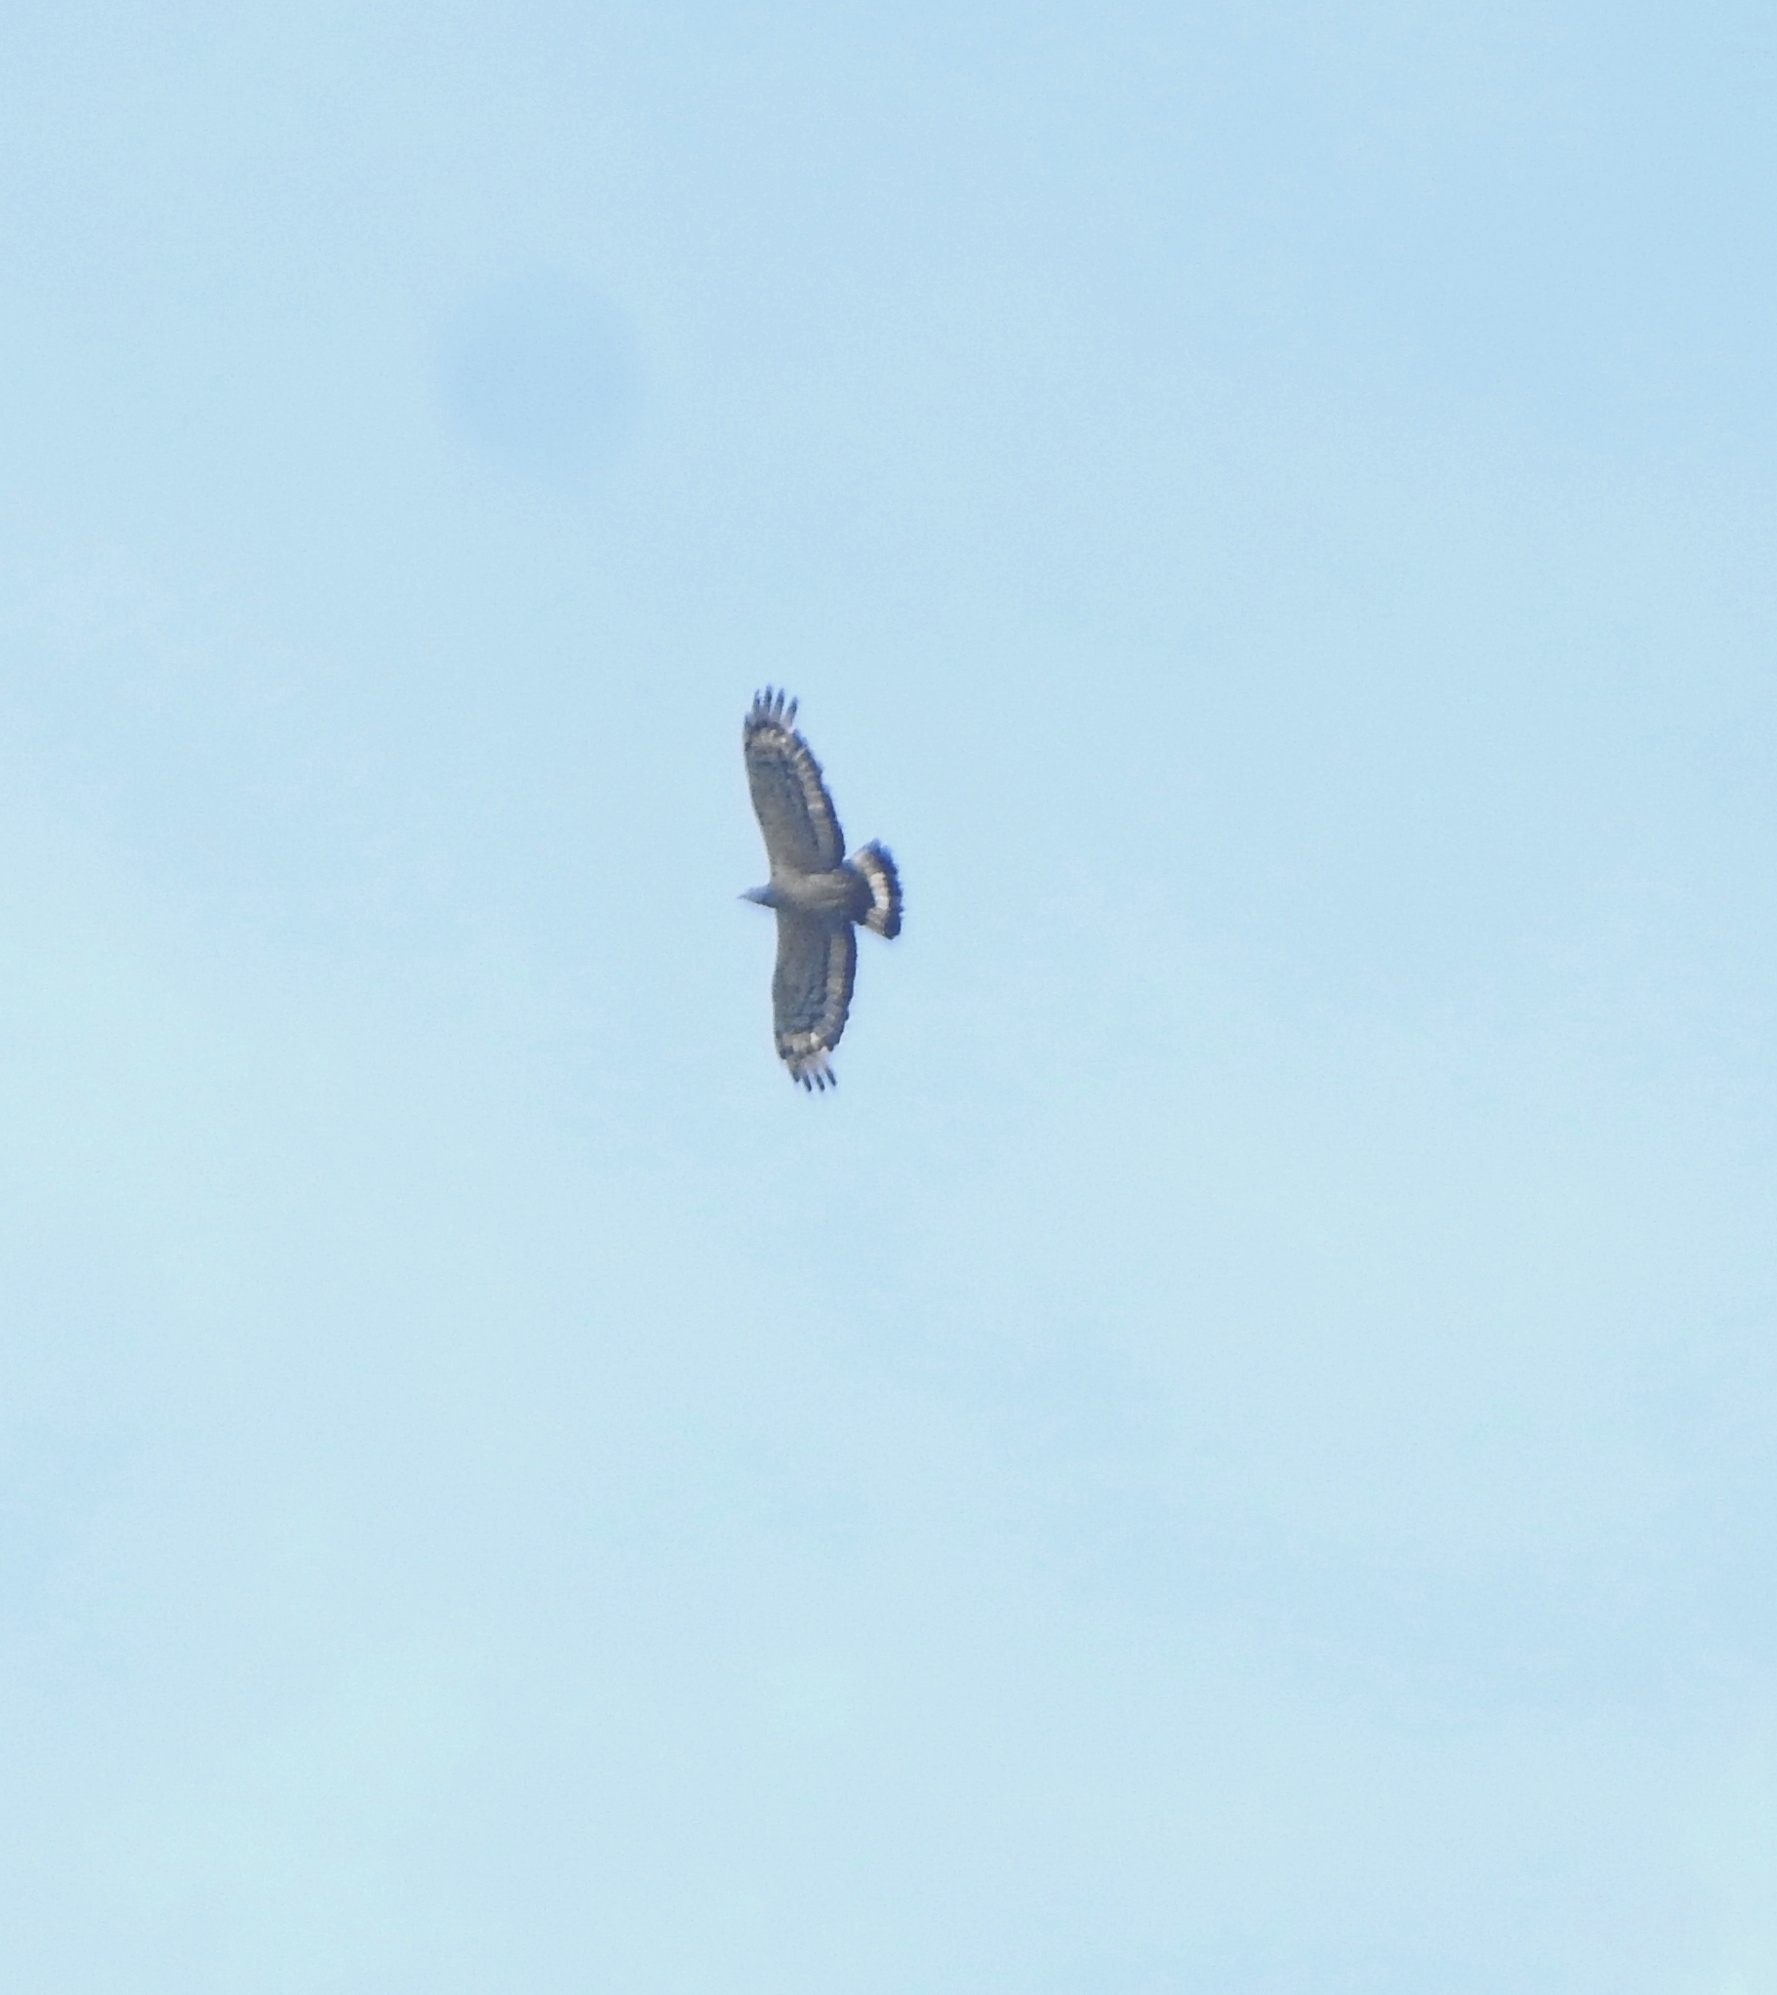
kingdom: Animalia
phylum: Chordata
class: Aves
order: Accipitriformes
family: Accipitridae
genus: Pernis
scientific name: Pernis ptilorhynchus
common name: Crested honey buzzard
